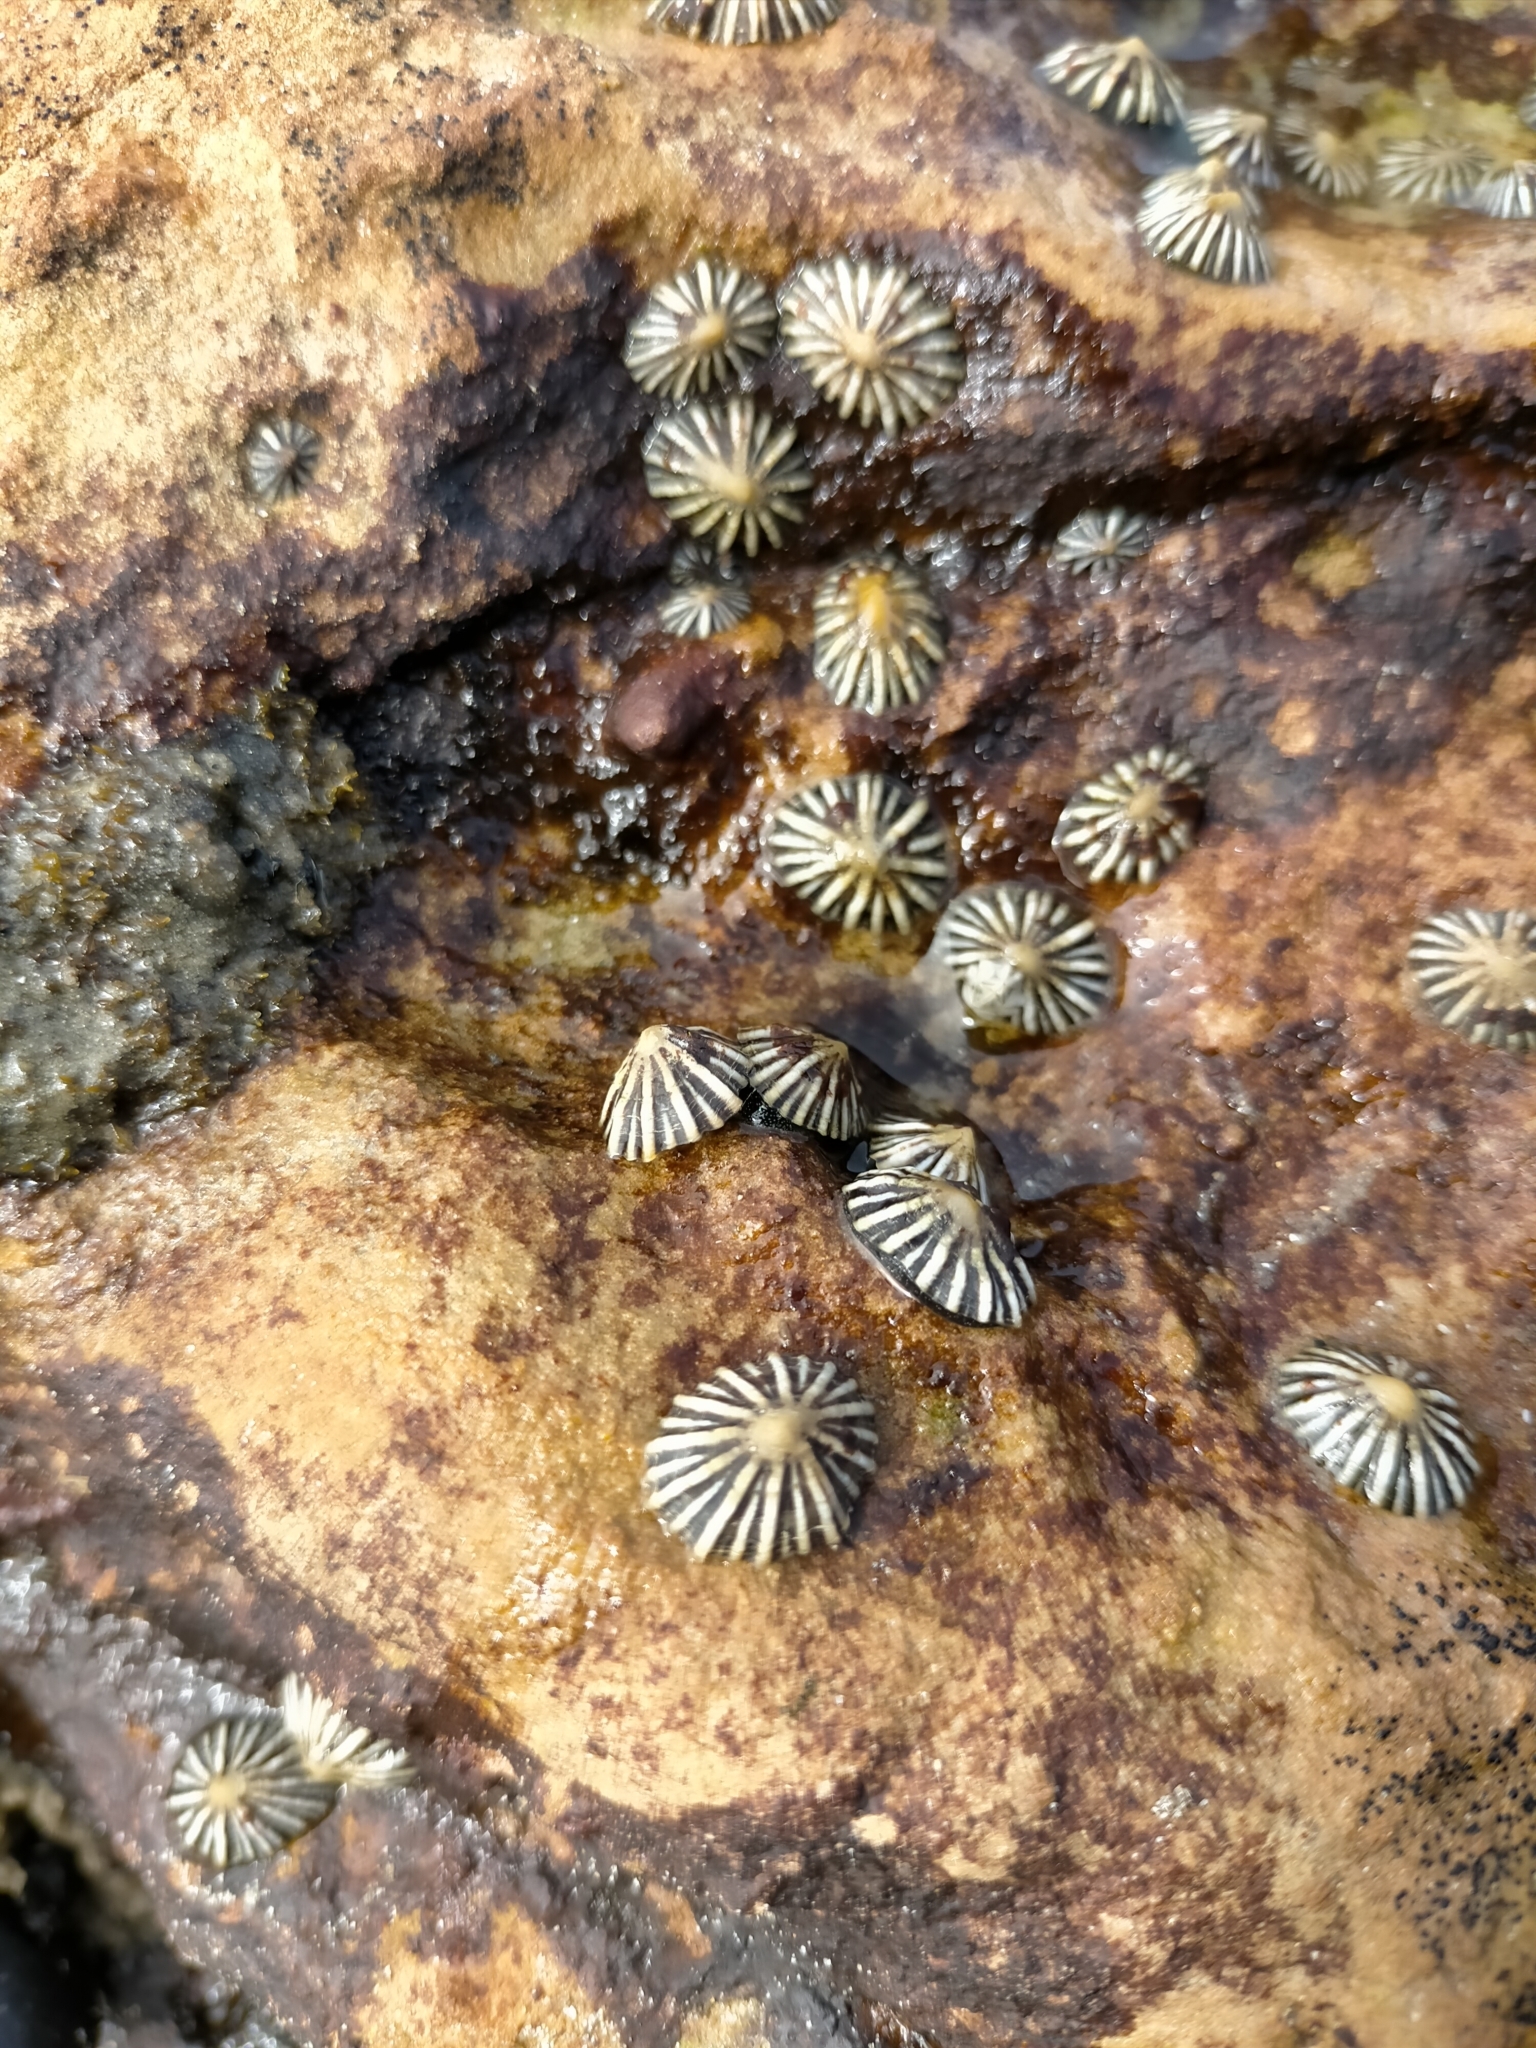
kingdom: Animalia
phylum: Mollusca
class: Gastropoda
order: Siphonariida
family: Siphonariidae
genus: Siphonaria
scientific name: Siphonaria diemenensis
